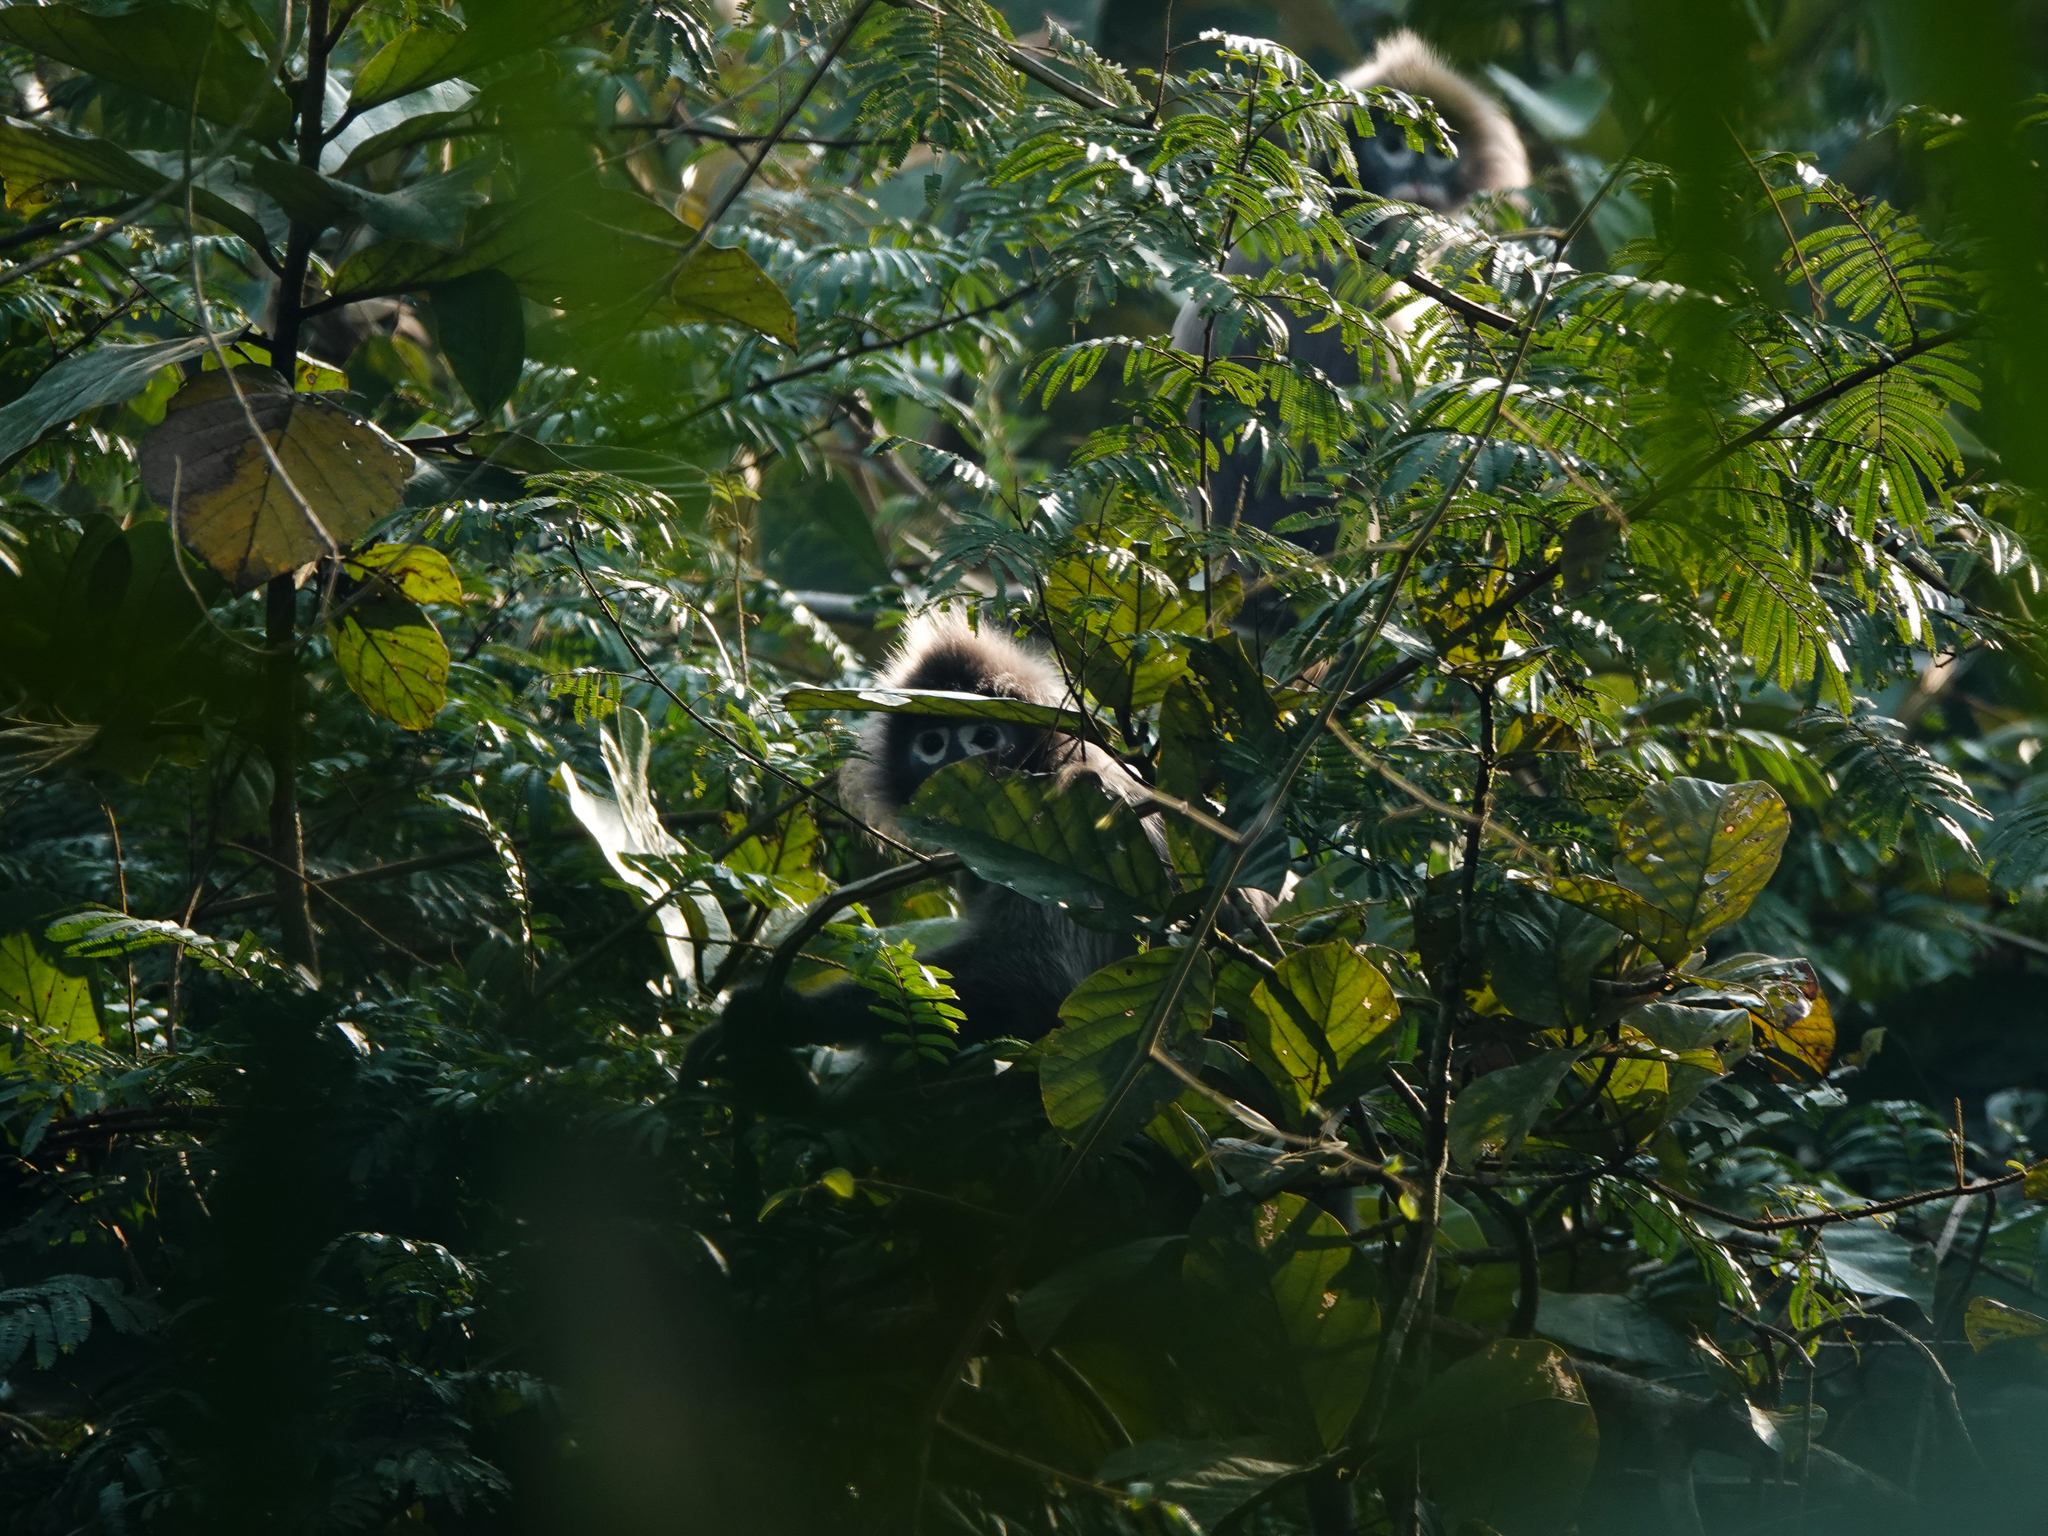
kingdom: Animalia
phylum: Chordata
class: Mammalia
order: Primates
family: Cercopithecidae
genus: Trachypithecus
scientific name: Trachypithecus phayrei
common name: Phayre's leaf monkey
